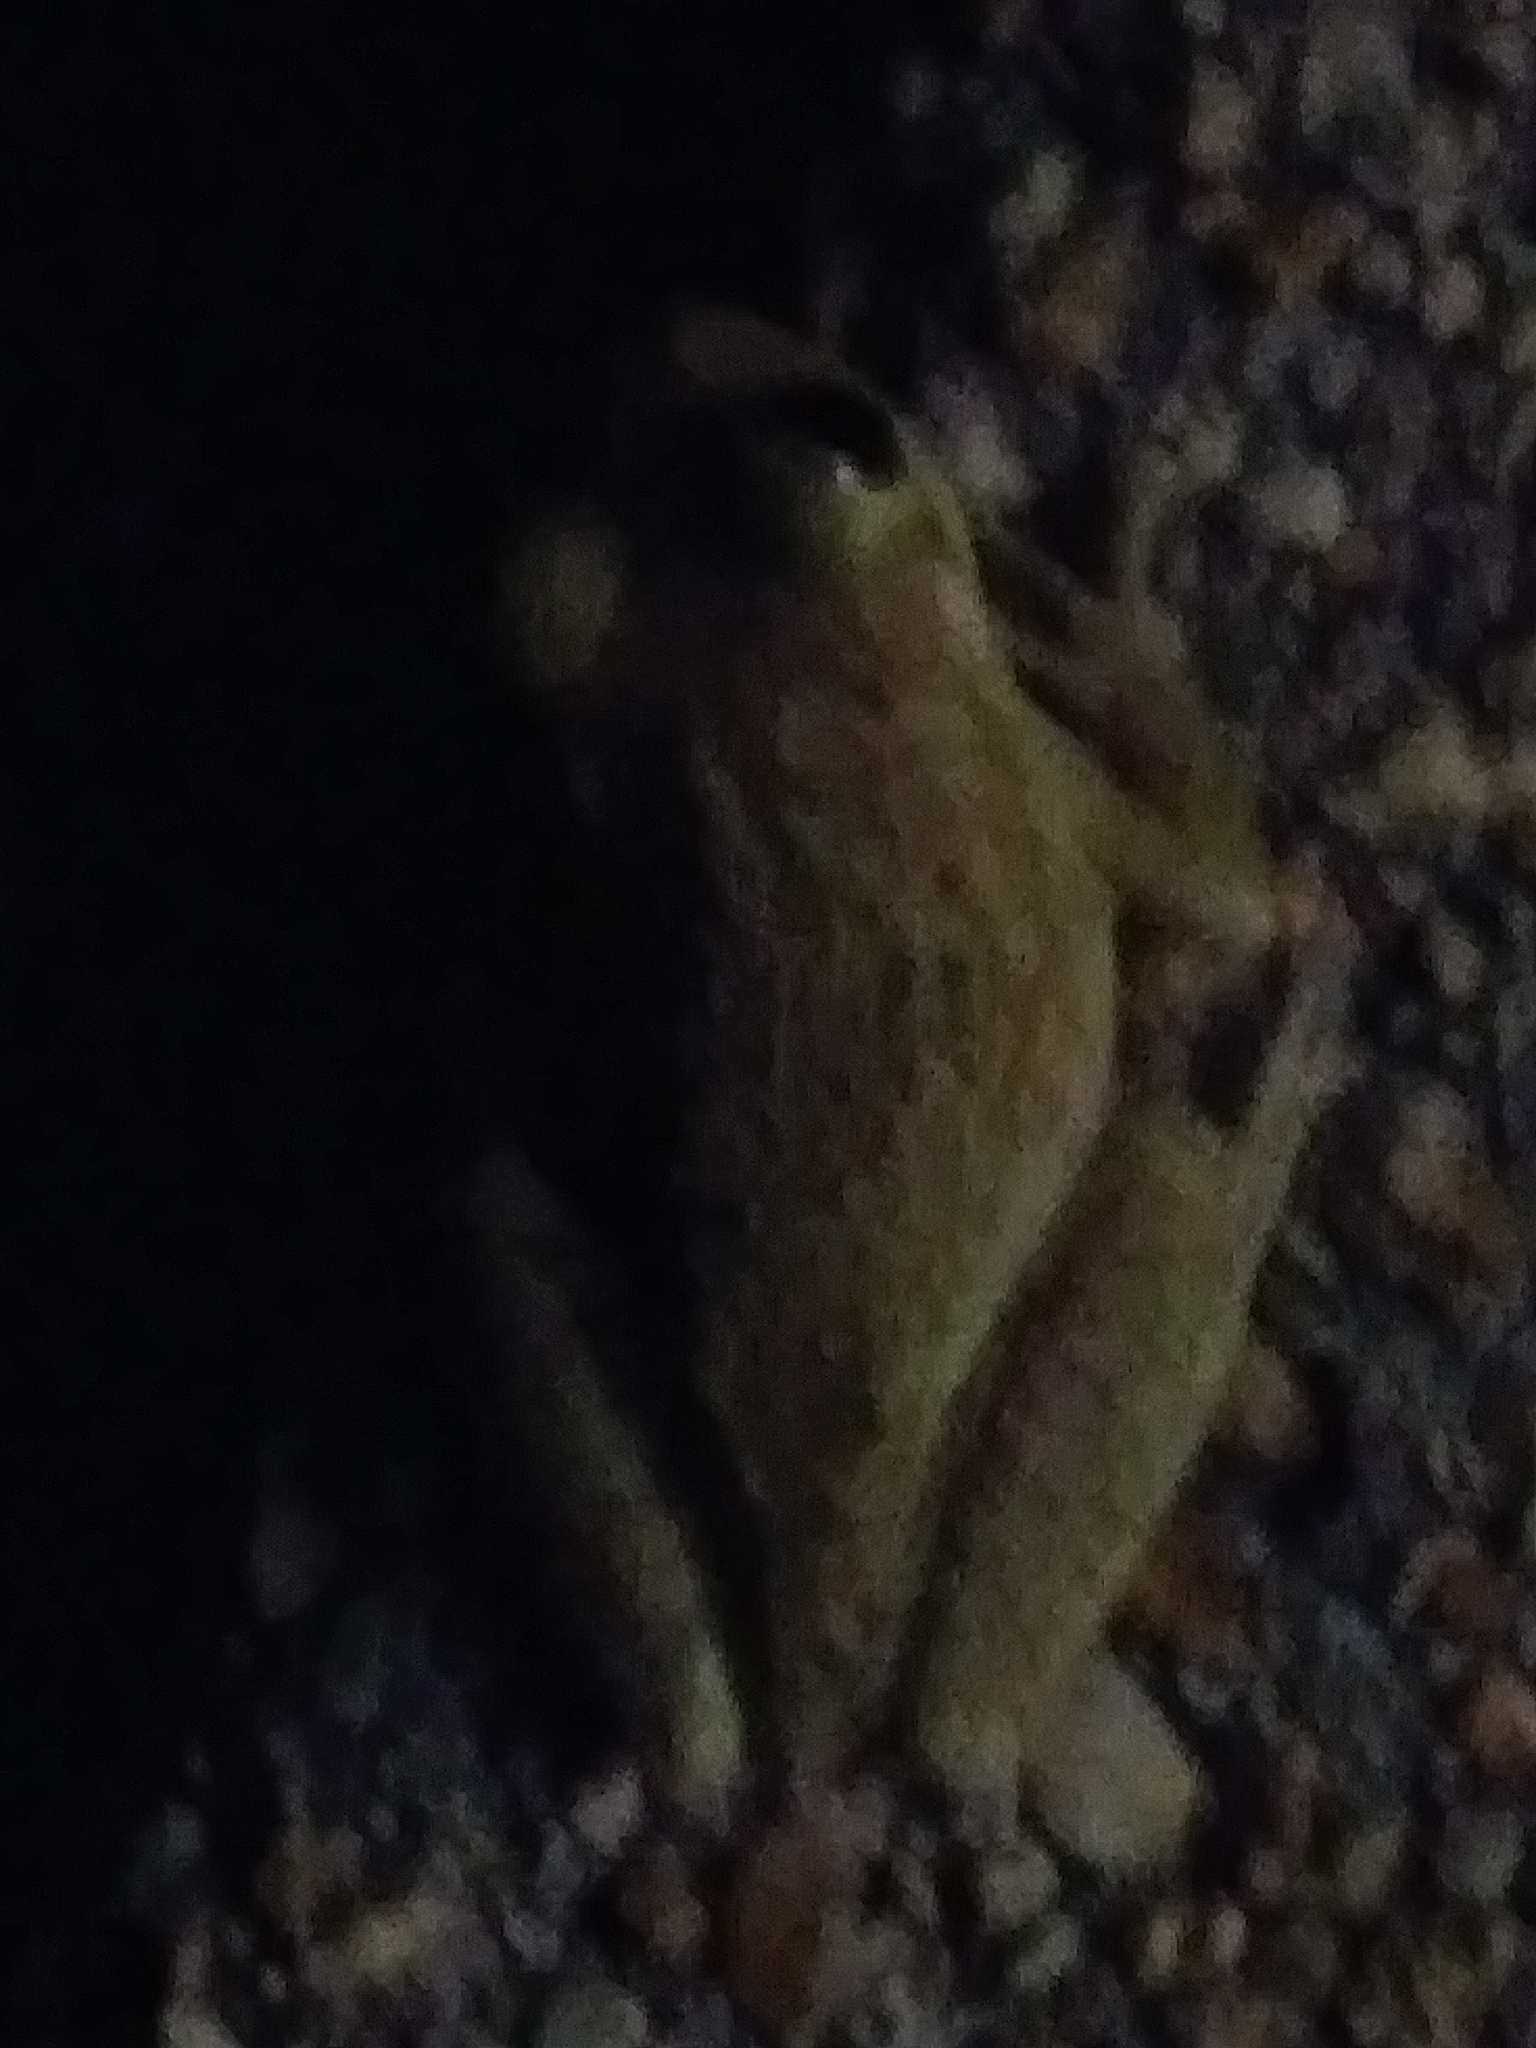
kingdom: Animalia
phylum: Chordata
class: Amphibia
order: Anura
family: Hylidae
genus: Osteopilus
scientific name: Osteopilus septentrionalis
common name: Cuban treefrog
